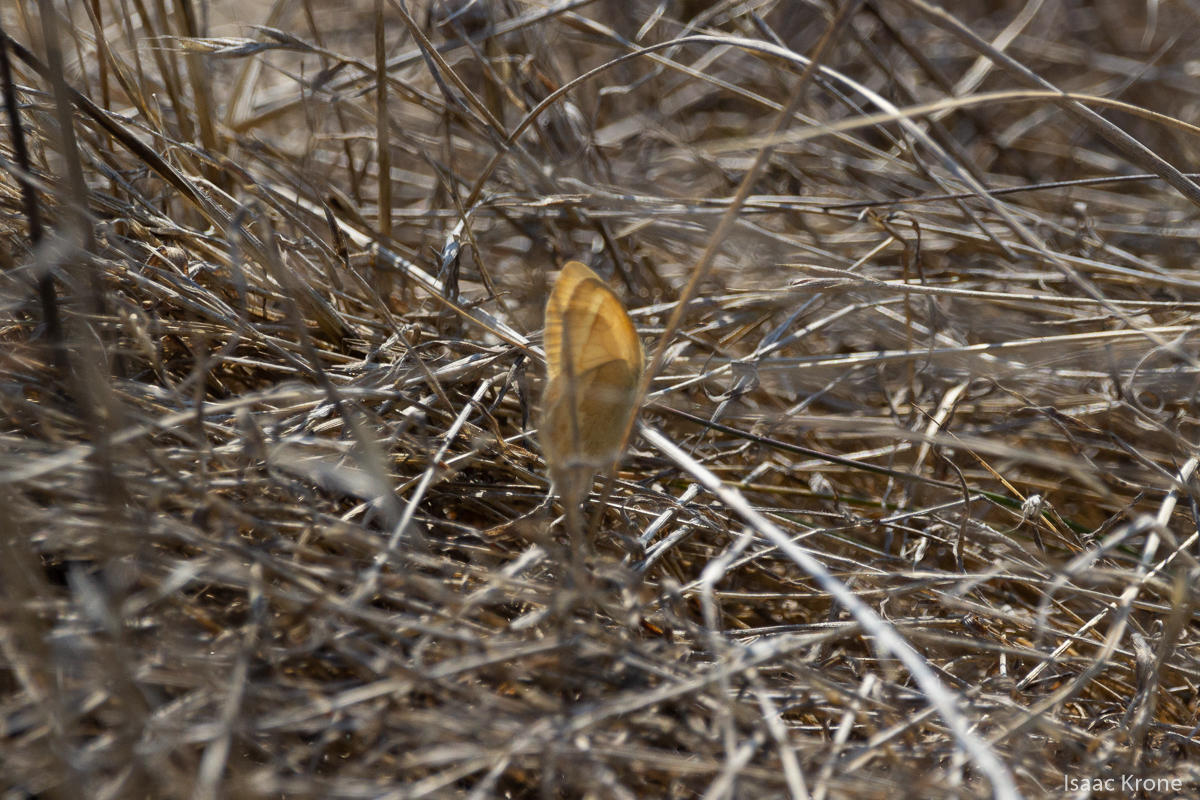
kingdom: Animalia
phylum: Arthropoda
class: Insecta
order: Lepidoptera
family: Nymphalidae
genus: Coenonympha
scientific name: Coenonympha california
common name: Common ringlet
